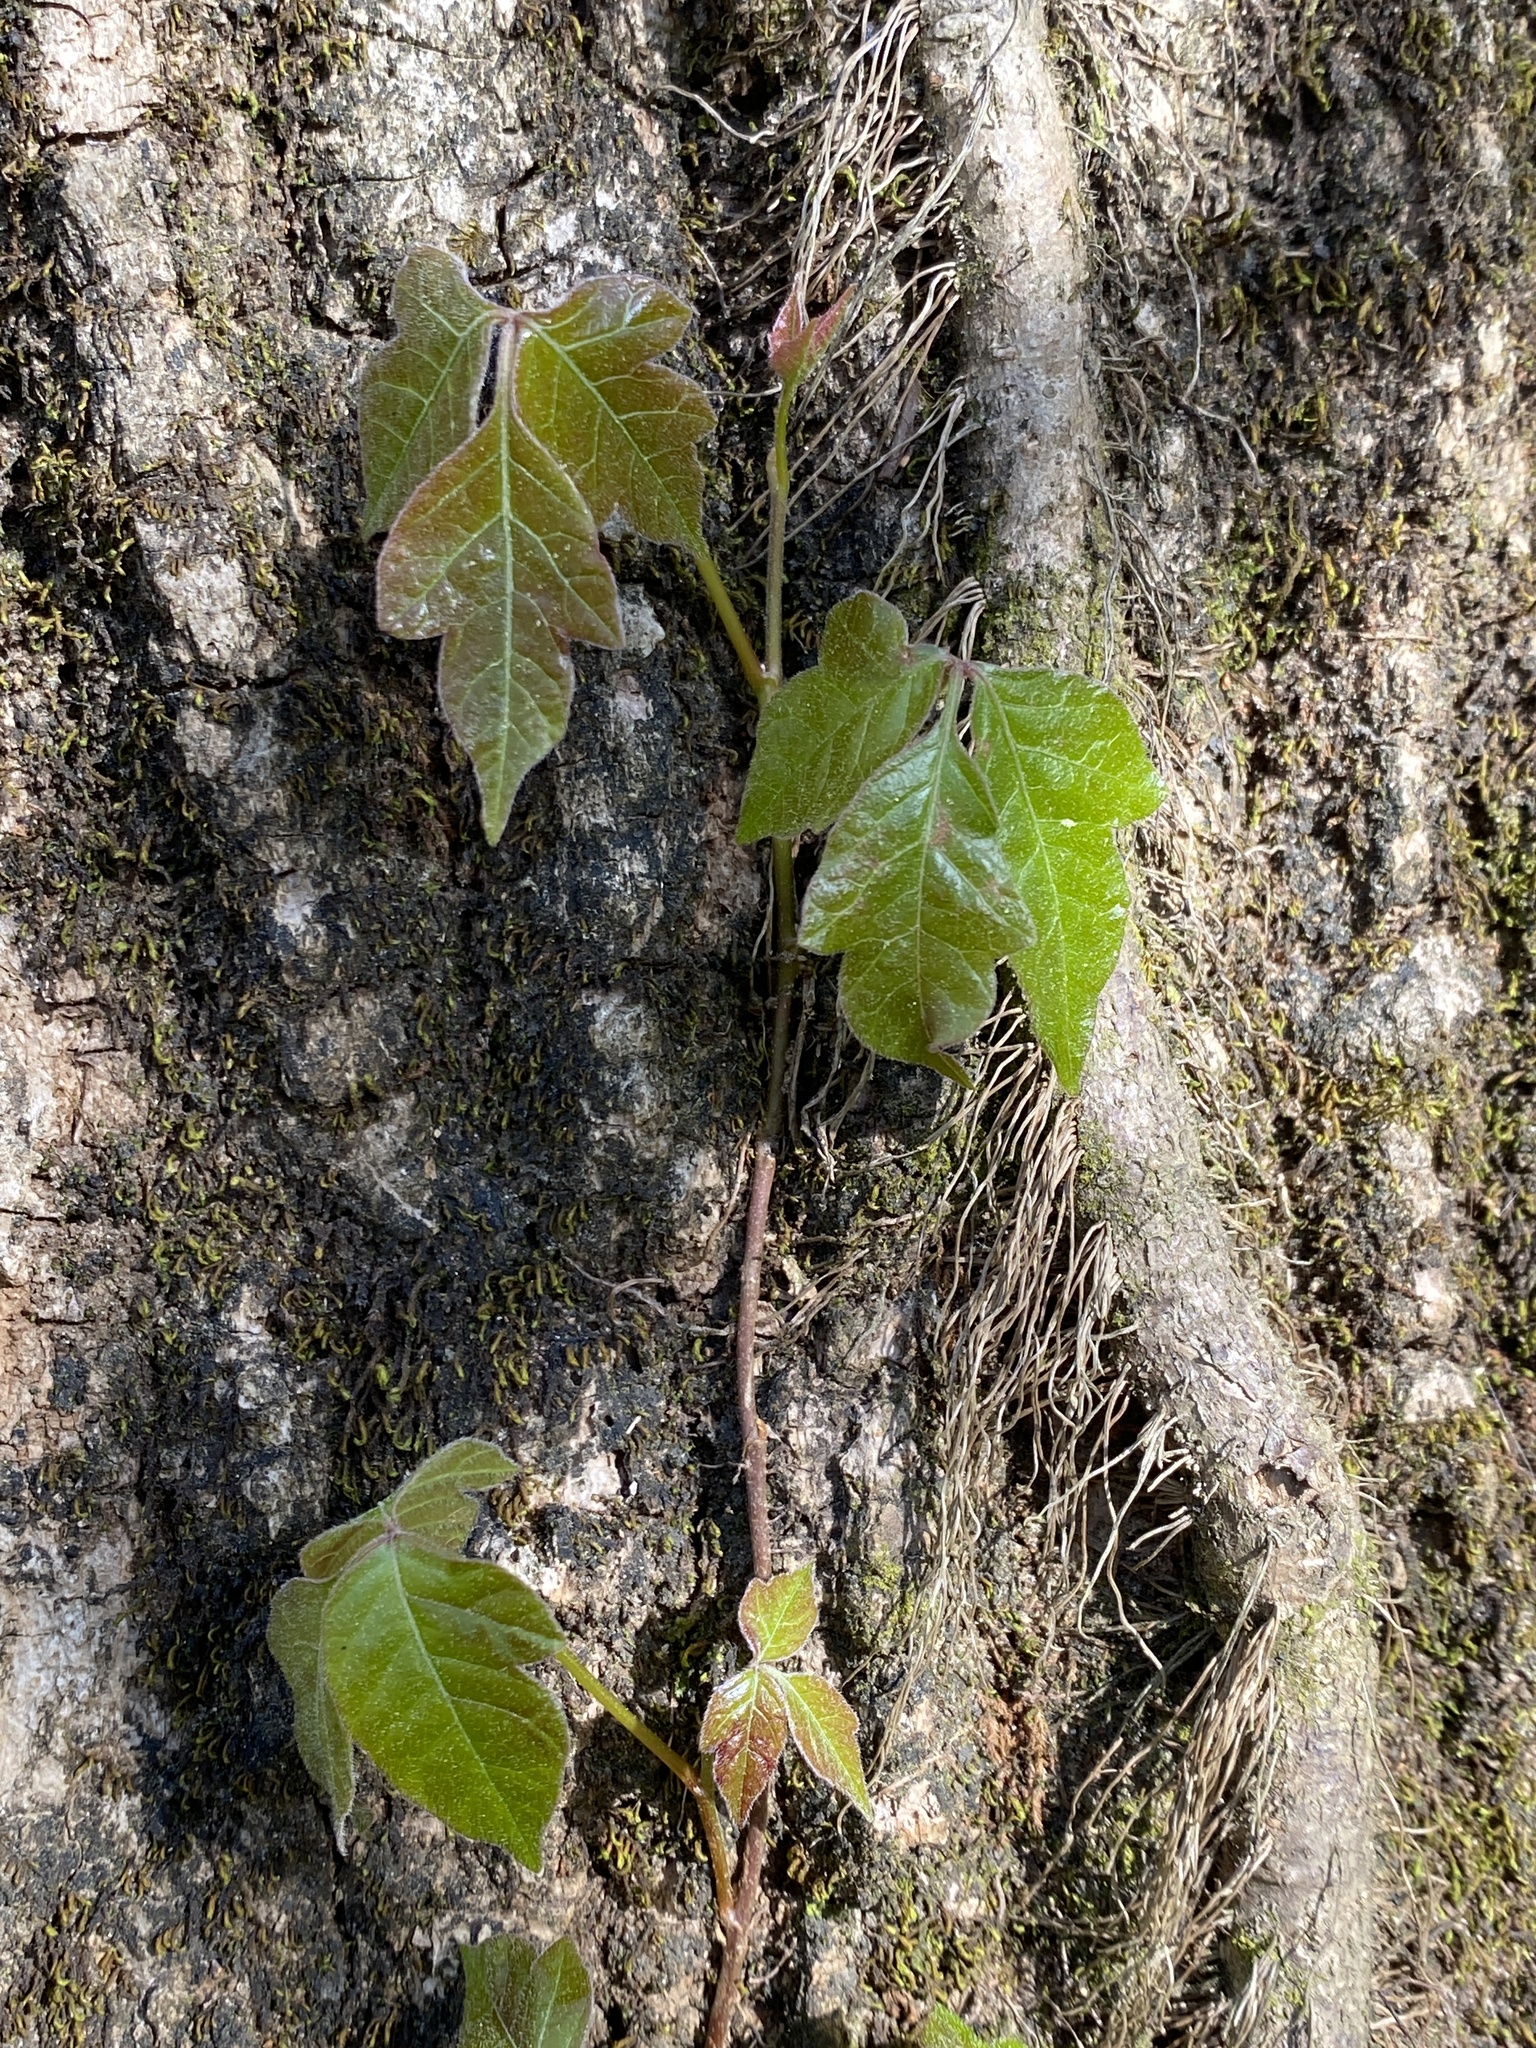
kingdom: Plantae
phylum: Tracheophyta
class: Magnoliopsida
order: Sapindales
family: Anacardiaceae
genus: Toxicodendron
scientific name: Toxicodendron radicans
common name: Poison ivy
